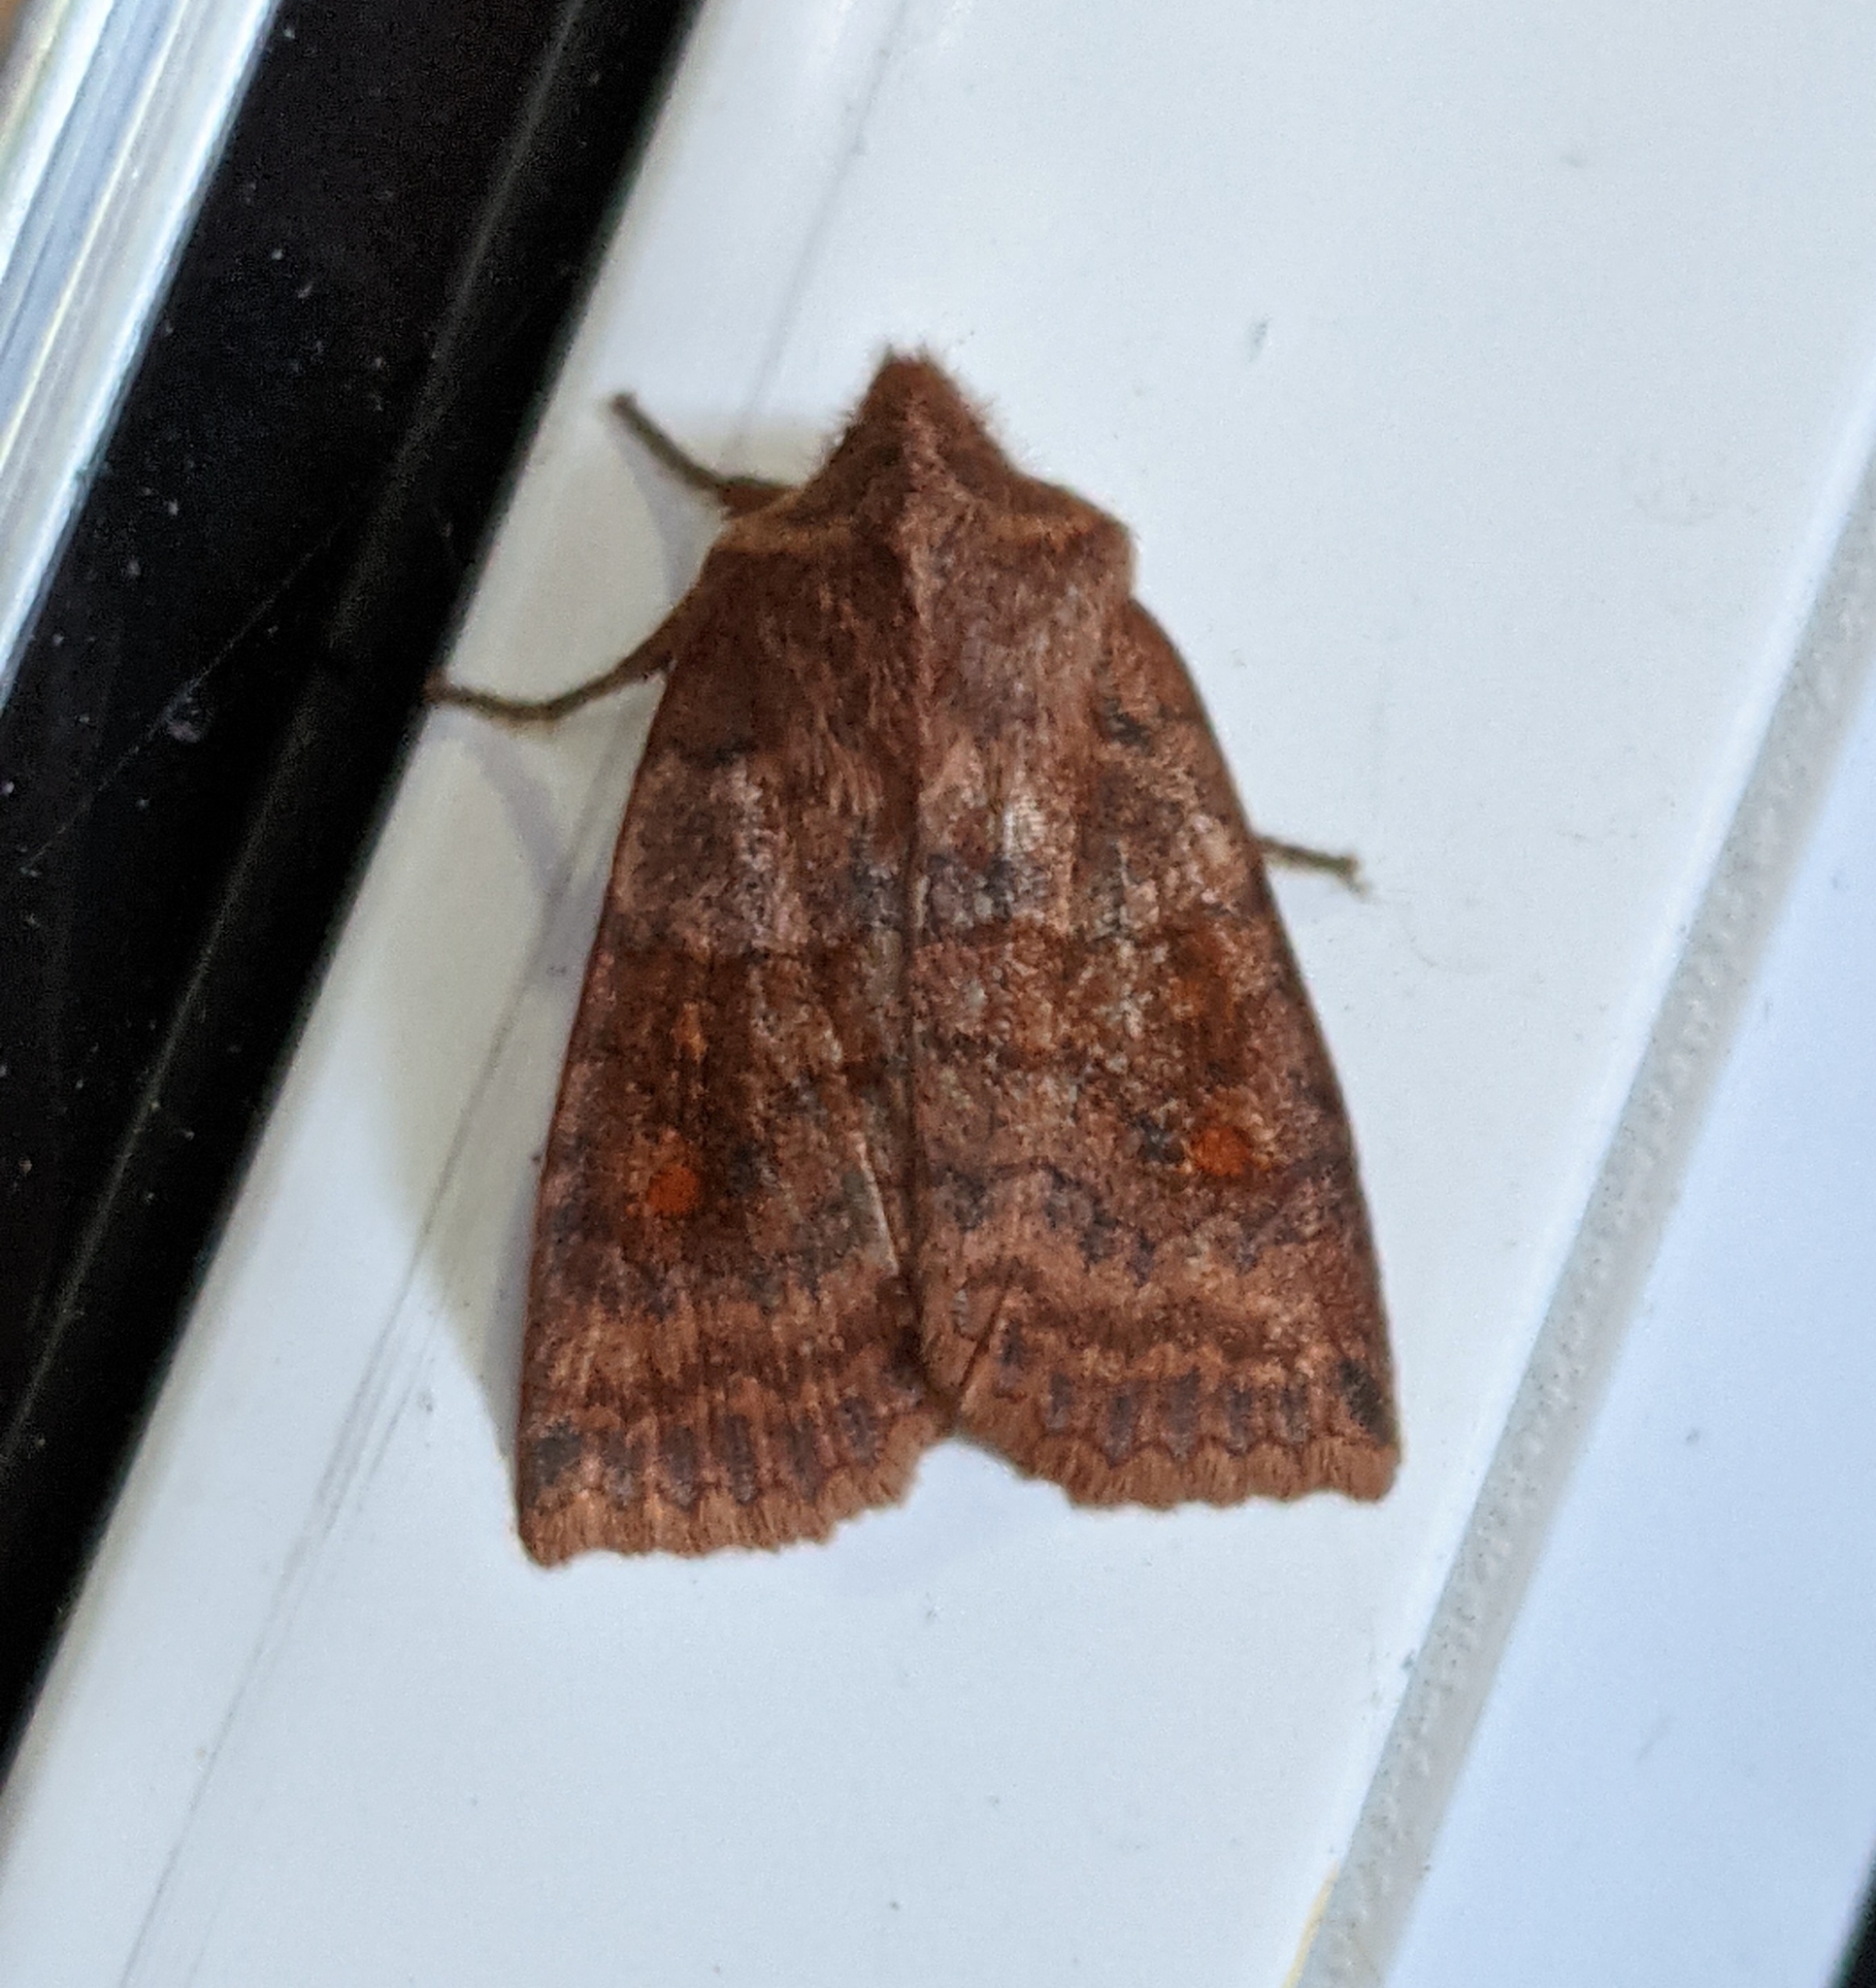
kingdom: Animalia
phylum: Arthropoda
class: Insecta
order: Lepidoptera
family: Noctuidae
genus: Eupsilia
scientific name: Eupsilia tristigmata
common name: Three-spotted sallow
